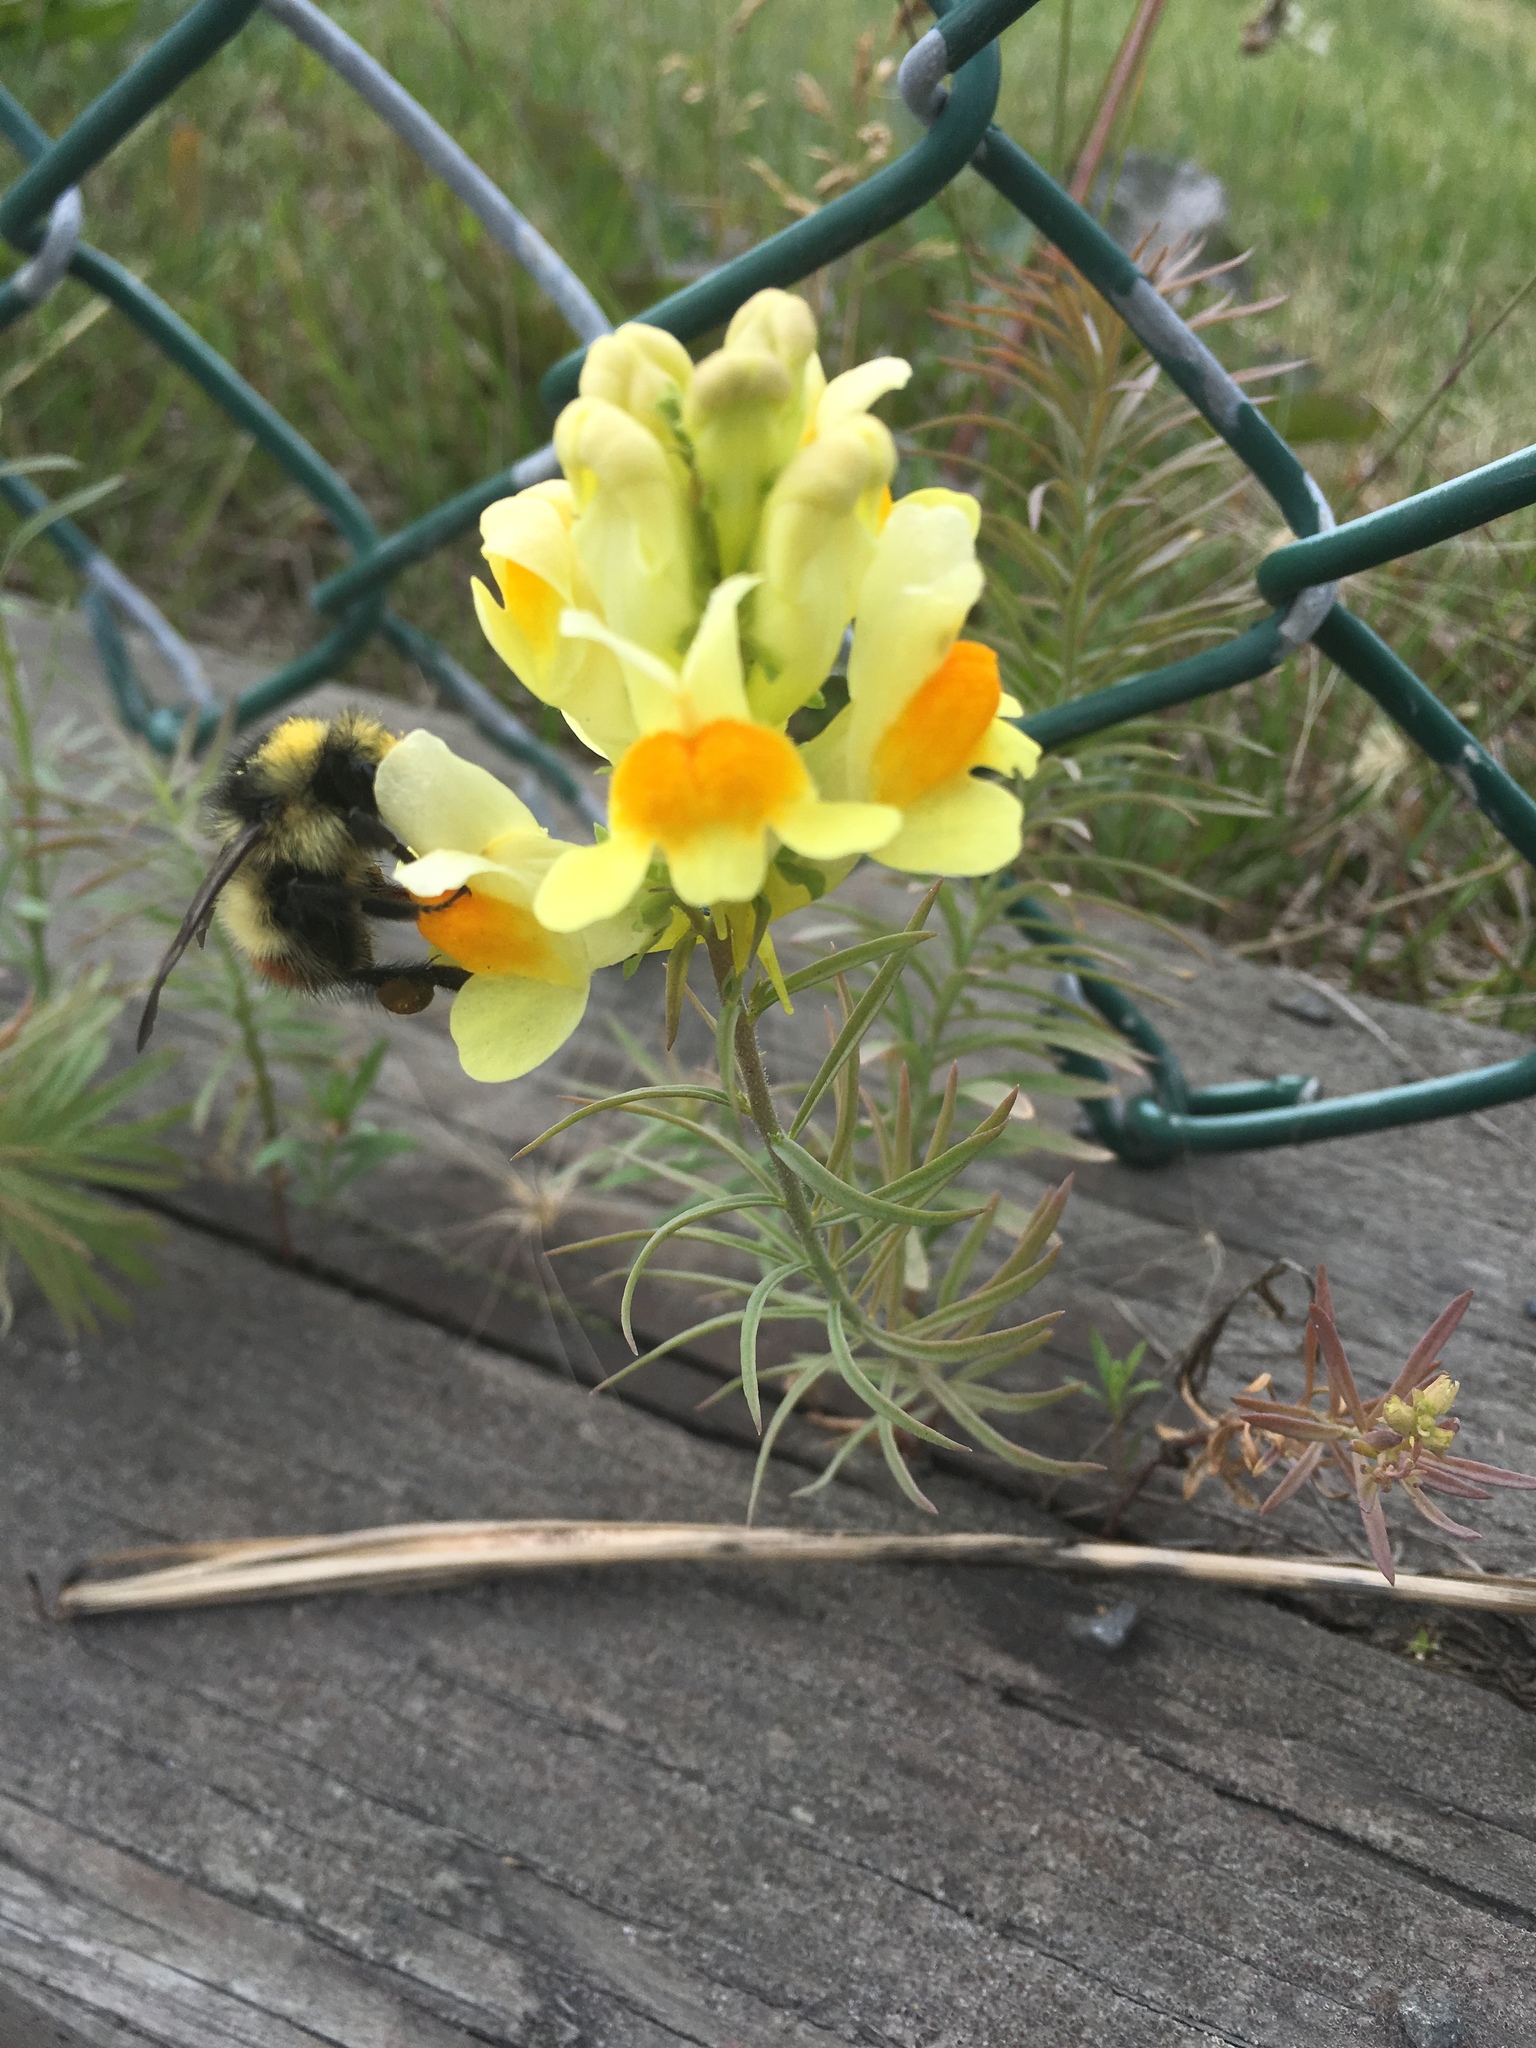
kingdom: Plantae
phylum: Tracheophyta
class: Magnoliopsida
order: Lamiales
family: Plantaginaceae
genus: Linaria
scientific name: Linaria vulgaris
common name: Butter and eggs
